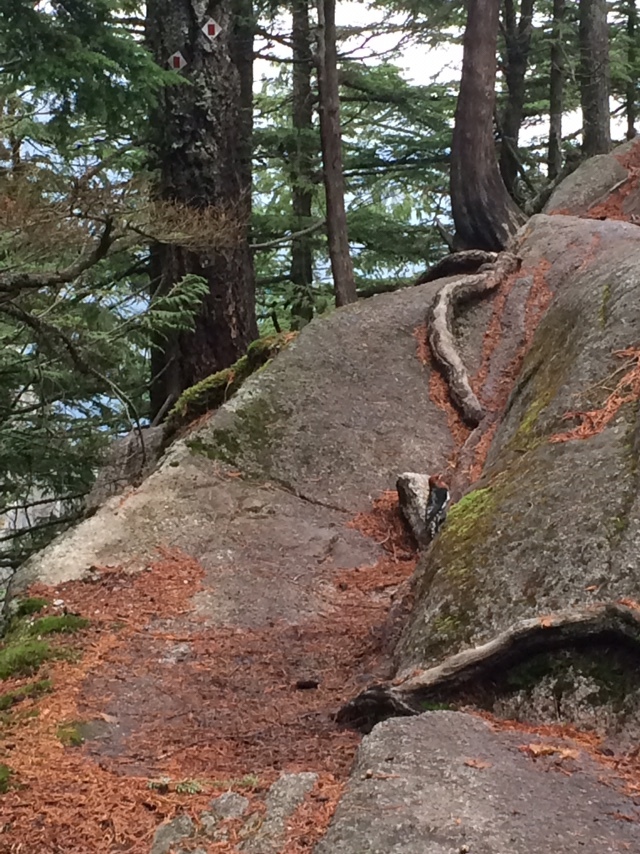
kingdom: Animalia
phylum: Chordata
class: Aves
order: Piciformes
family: Picidae
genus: Sphyrapicus
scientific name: Sphyrapicus ruber
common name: Red-breasted sapsucker
